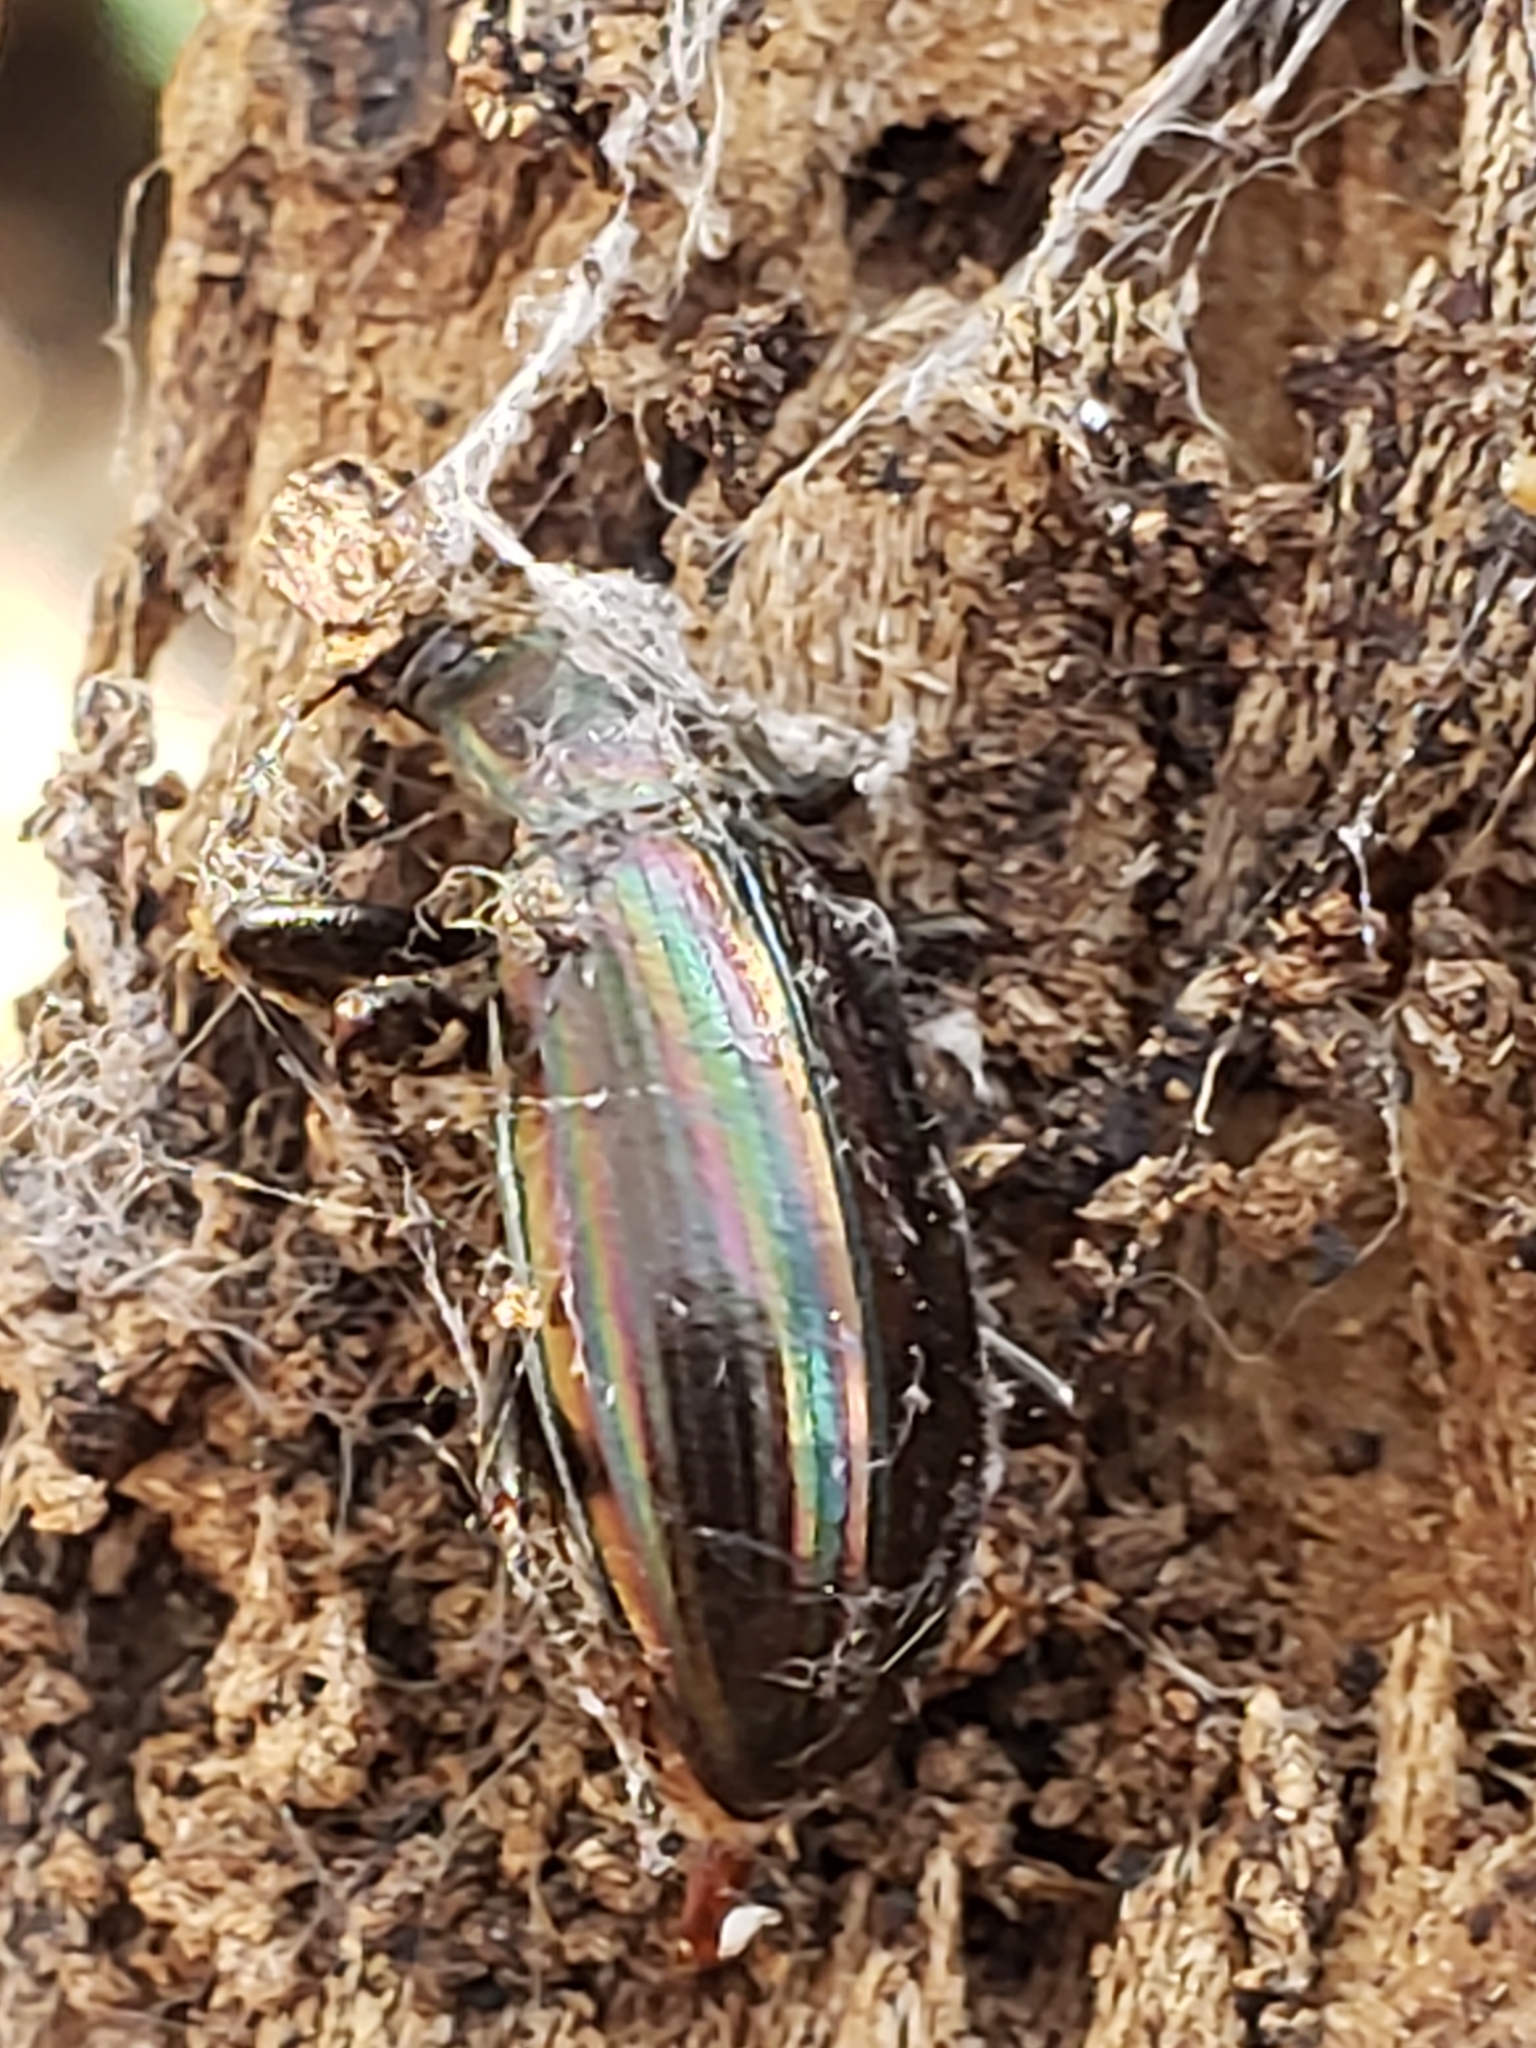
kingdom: Animalia
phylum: Arthropoda
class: Insecta
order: Coleoptera
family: Tenebrionidae
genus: Tarpela
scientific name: Tarpela micans
